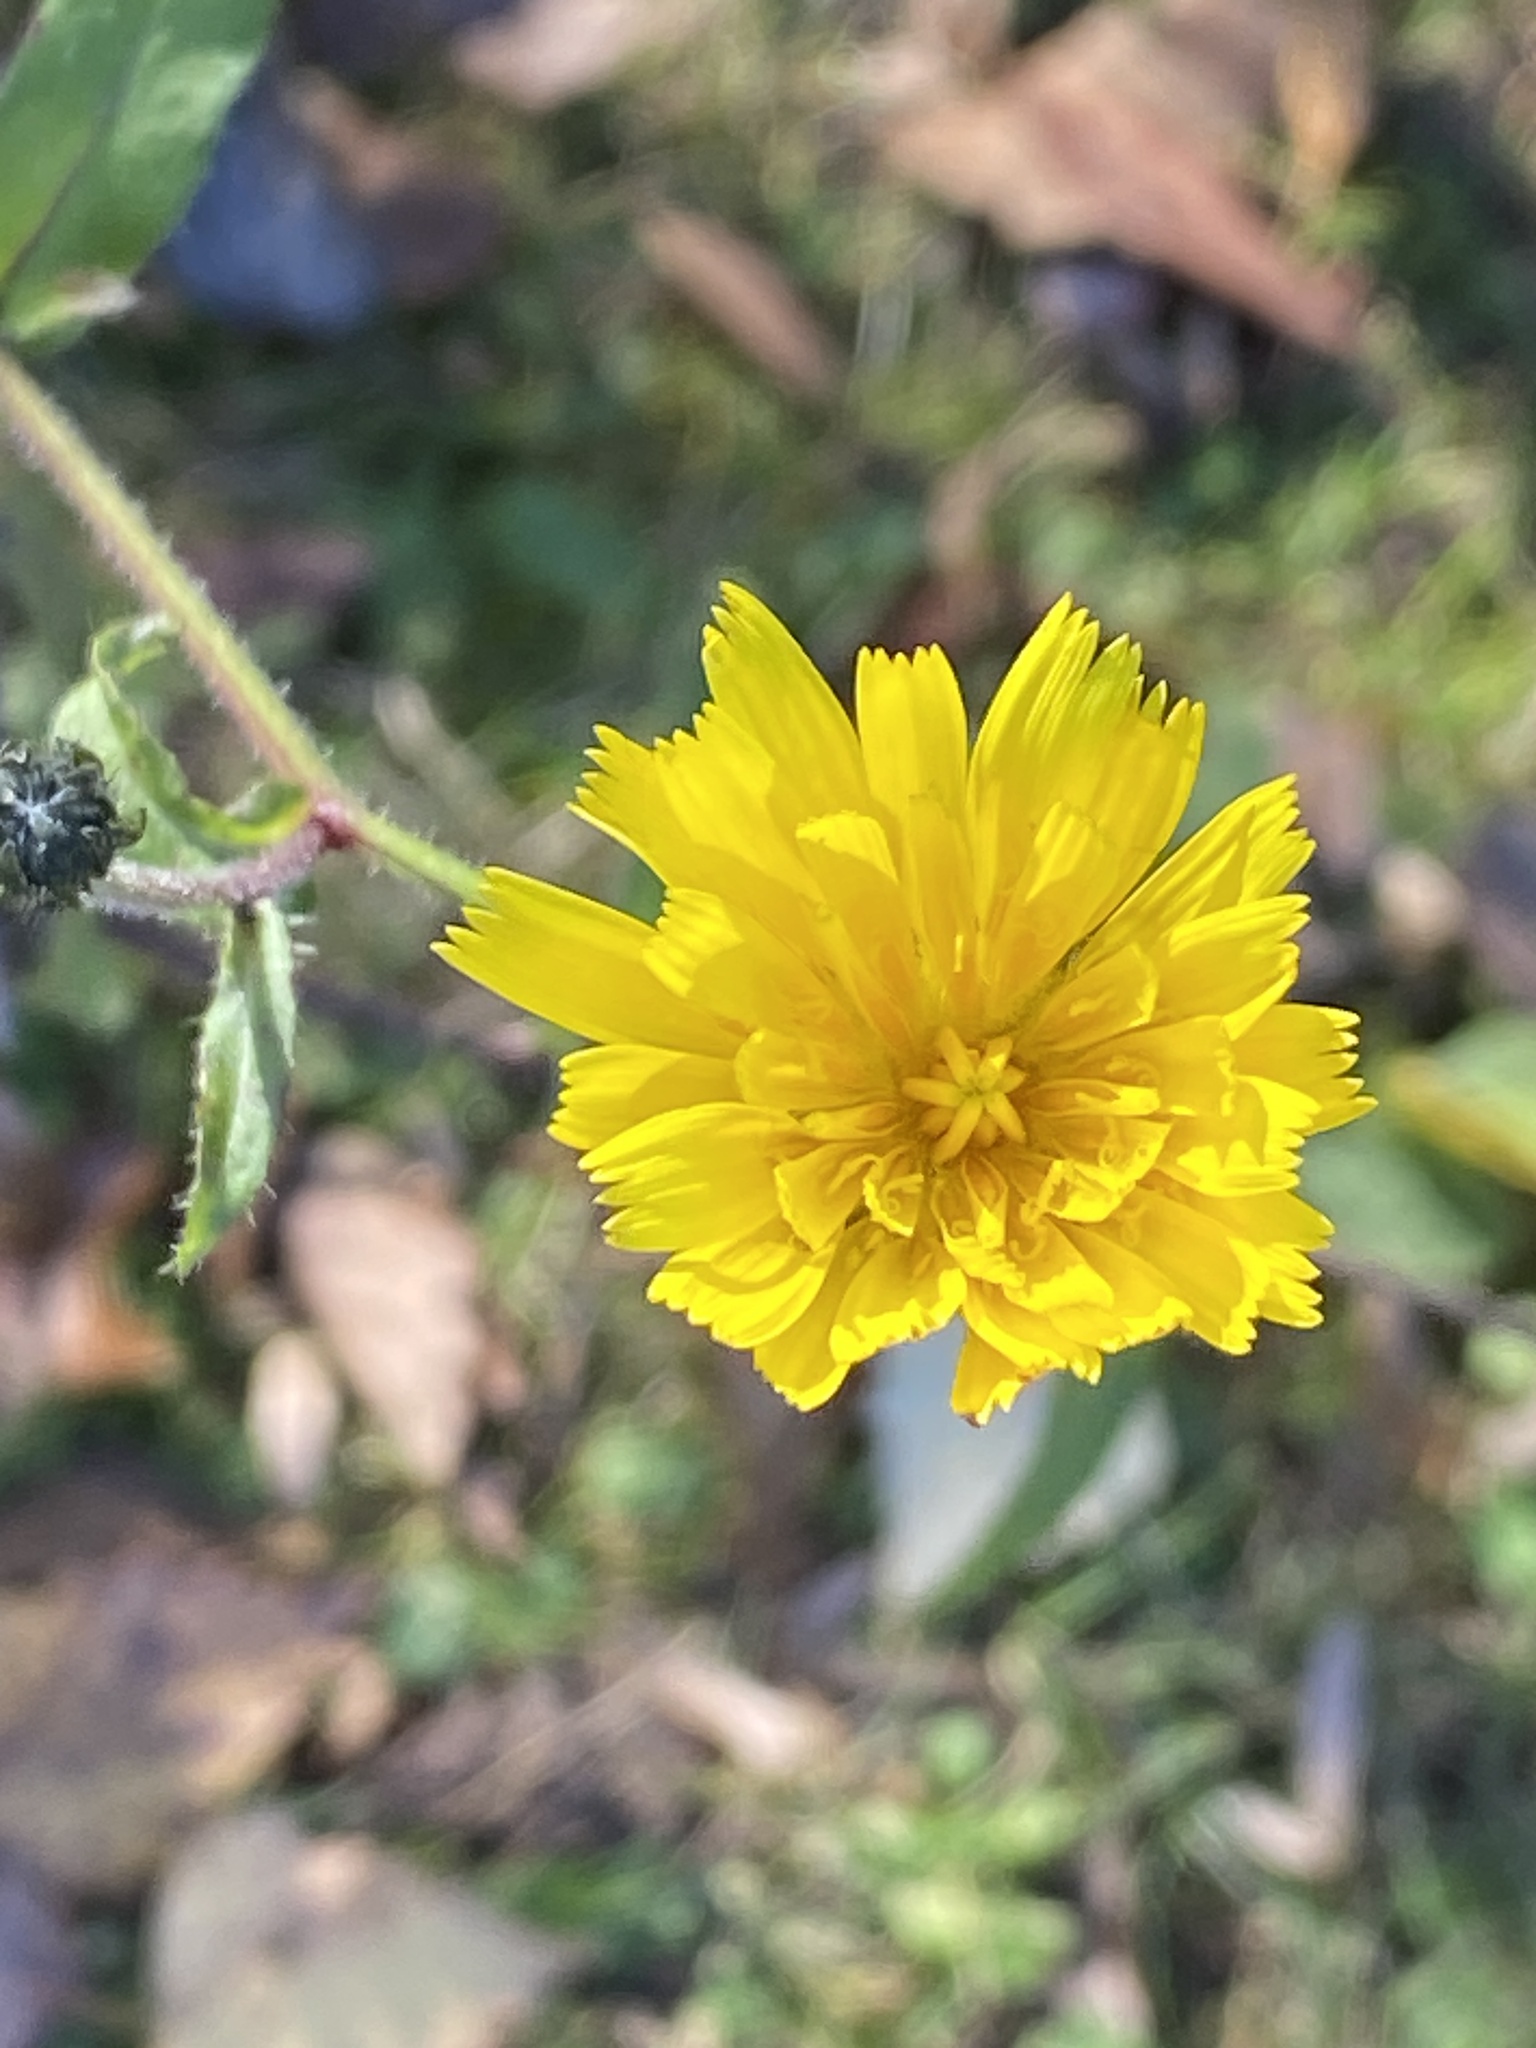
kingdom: Plantae
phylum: Tracheophyta
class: Magnoliopsida
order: Asterales
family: Asteraceae
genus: Picris
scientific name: Picris hieracioides
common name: Hawkweed oxtongue
